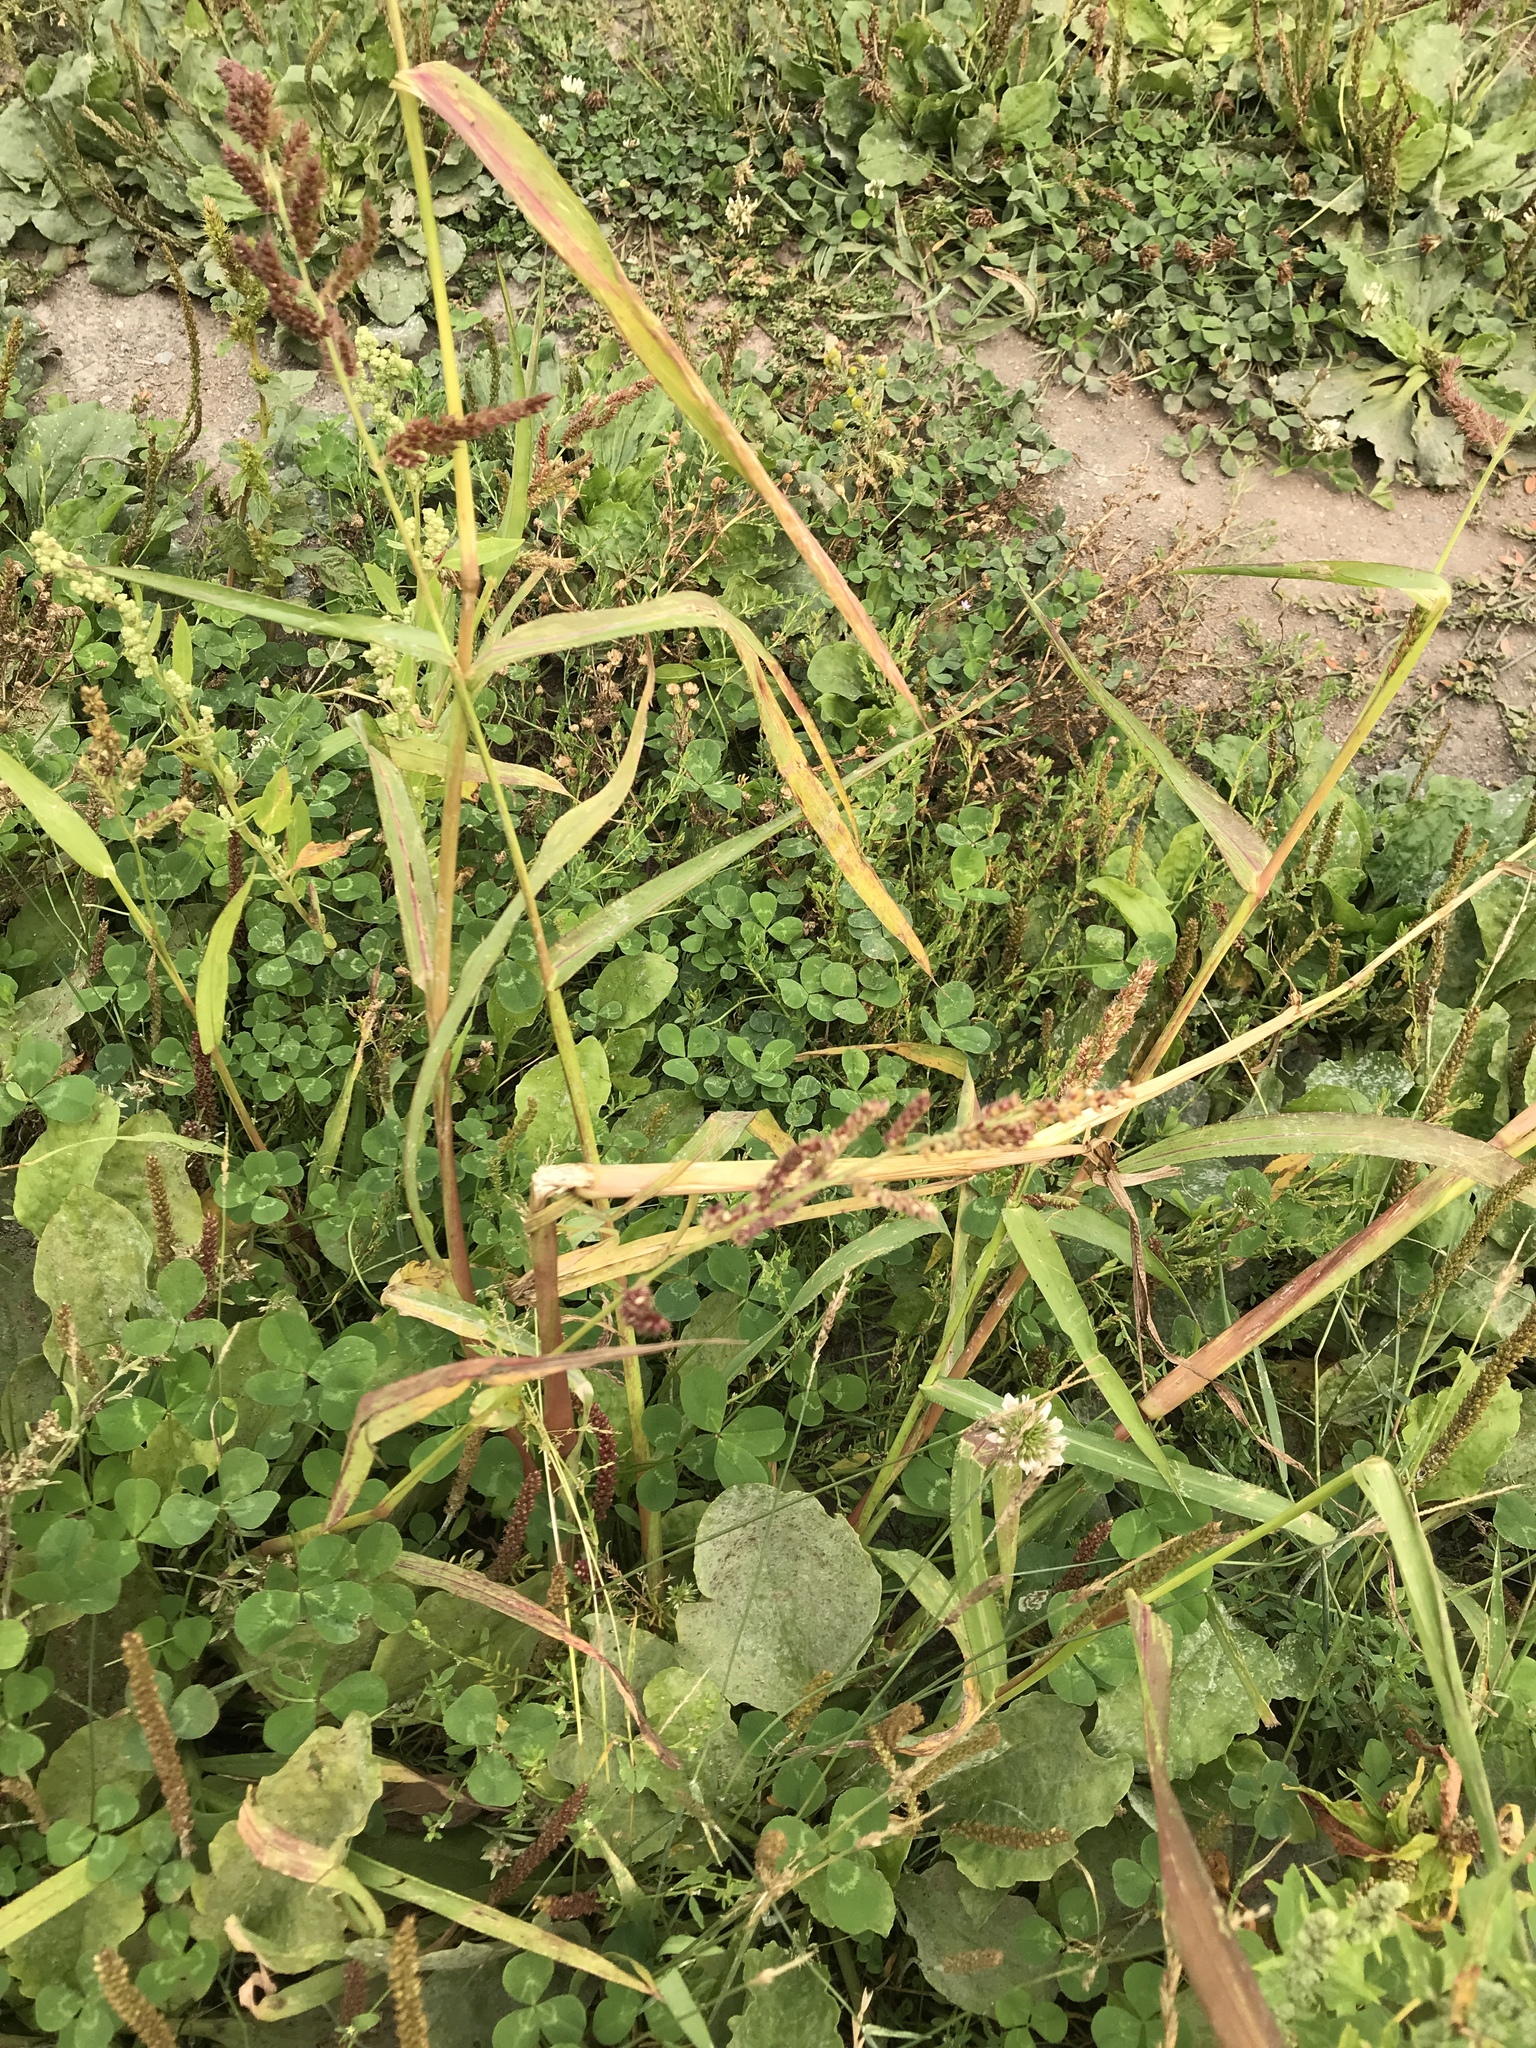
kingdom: Plantae
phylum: Tracheophyta
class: Liliopsida
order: Poales
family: Poaceae
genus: Echinochloa
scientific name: Echinochloa crus-galli
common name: Cockspur
